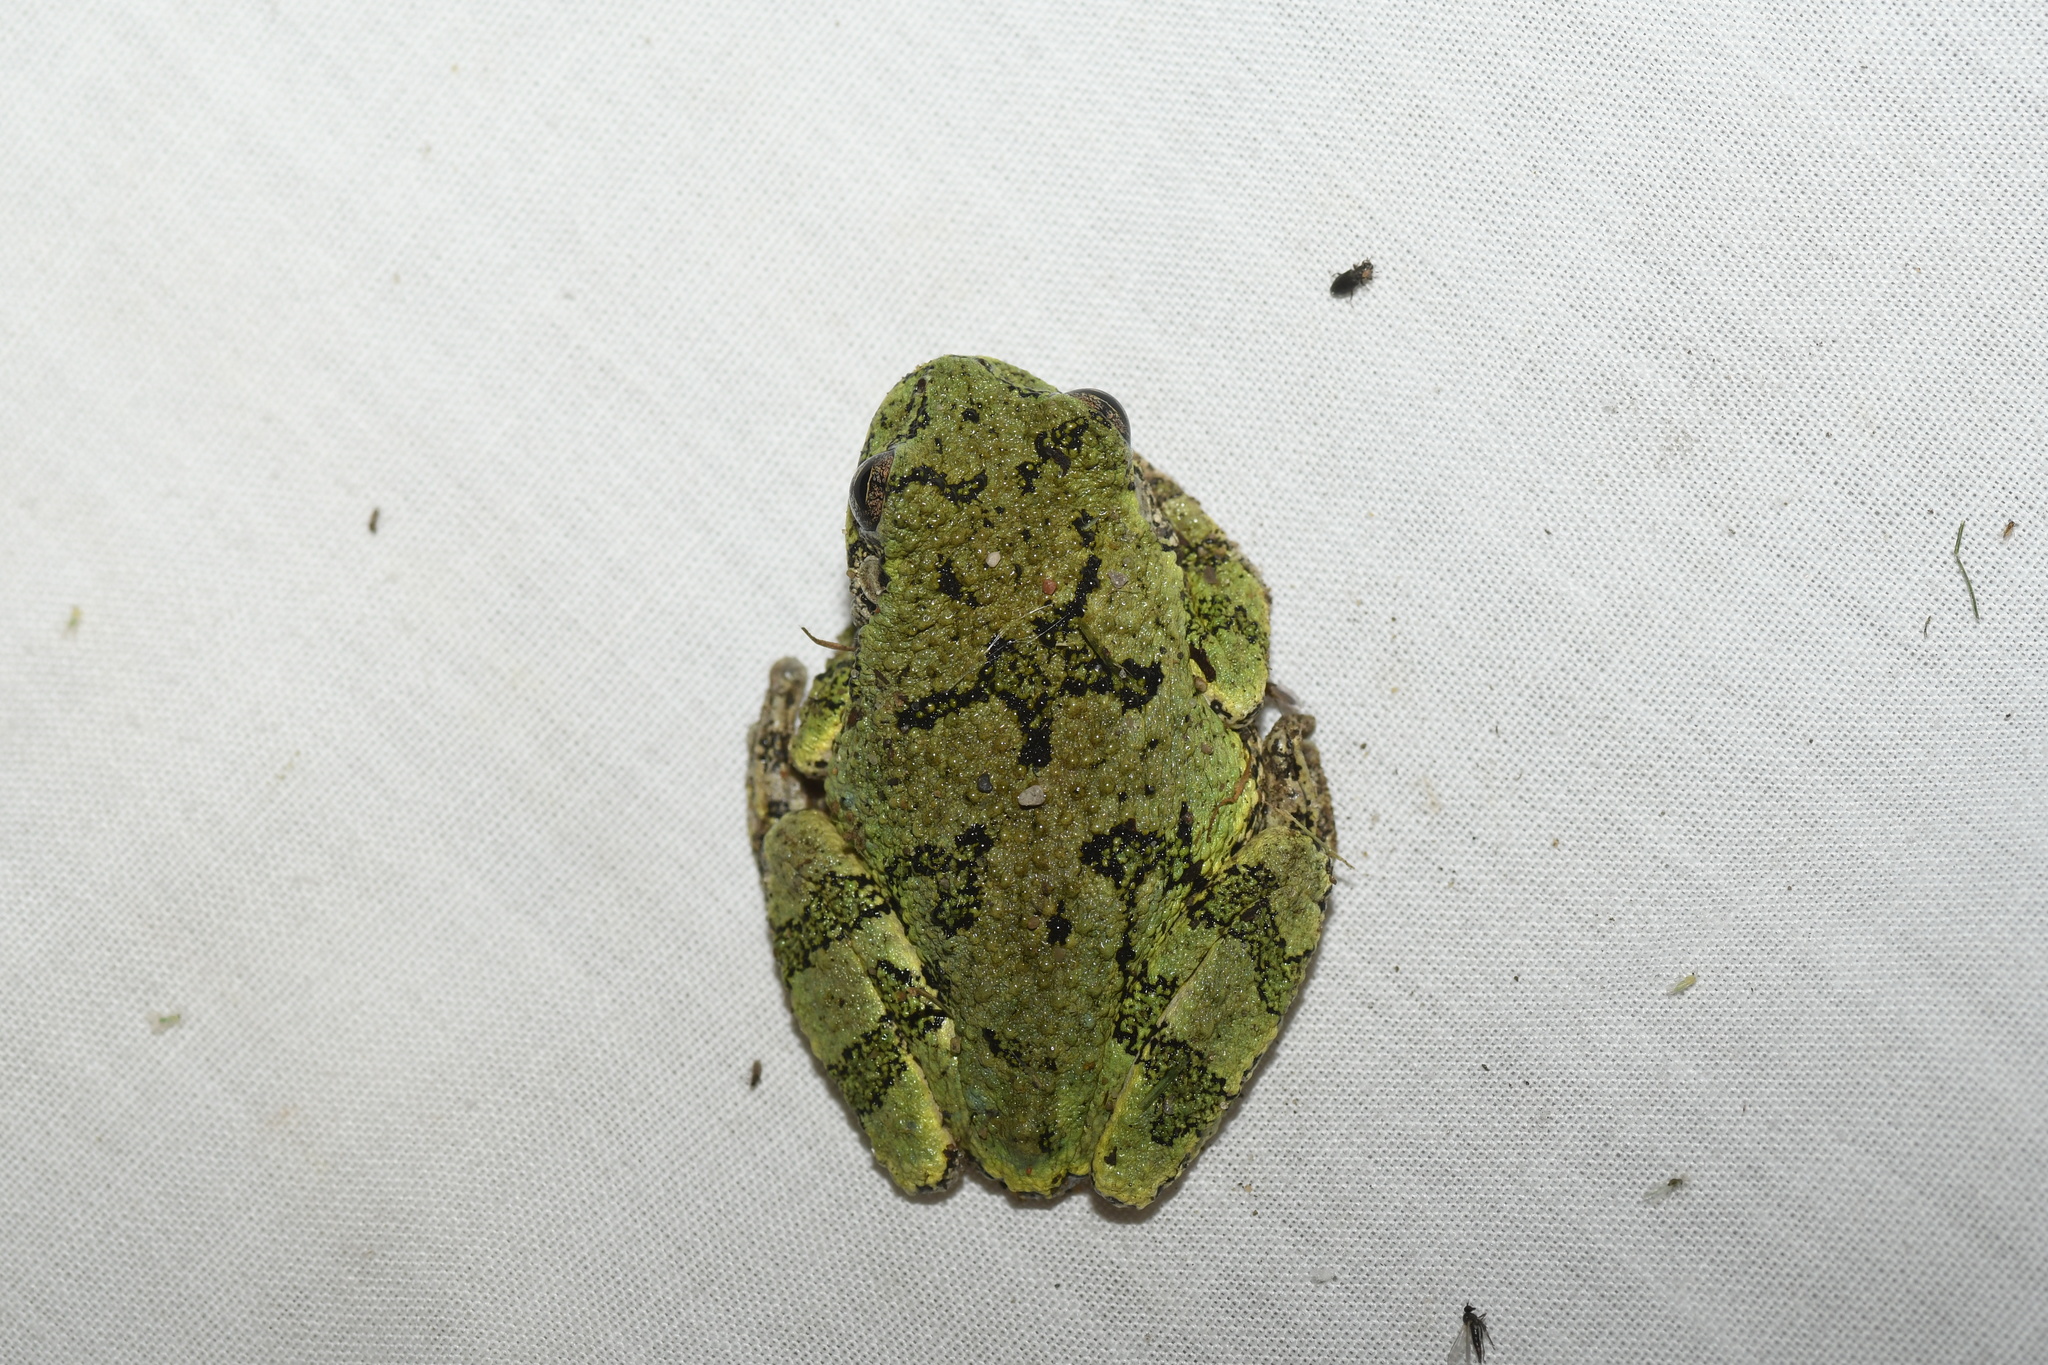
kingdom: Animalia
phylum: Chordata
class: Amphibia
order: Anura
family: Hylidae
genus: Dryophytes
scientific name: Dryophytes versicolor
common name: Gray treefrog
